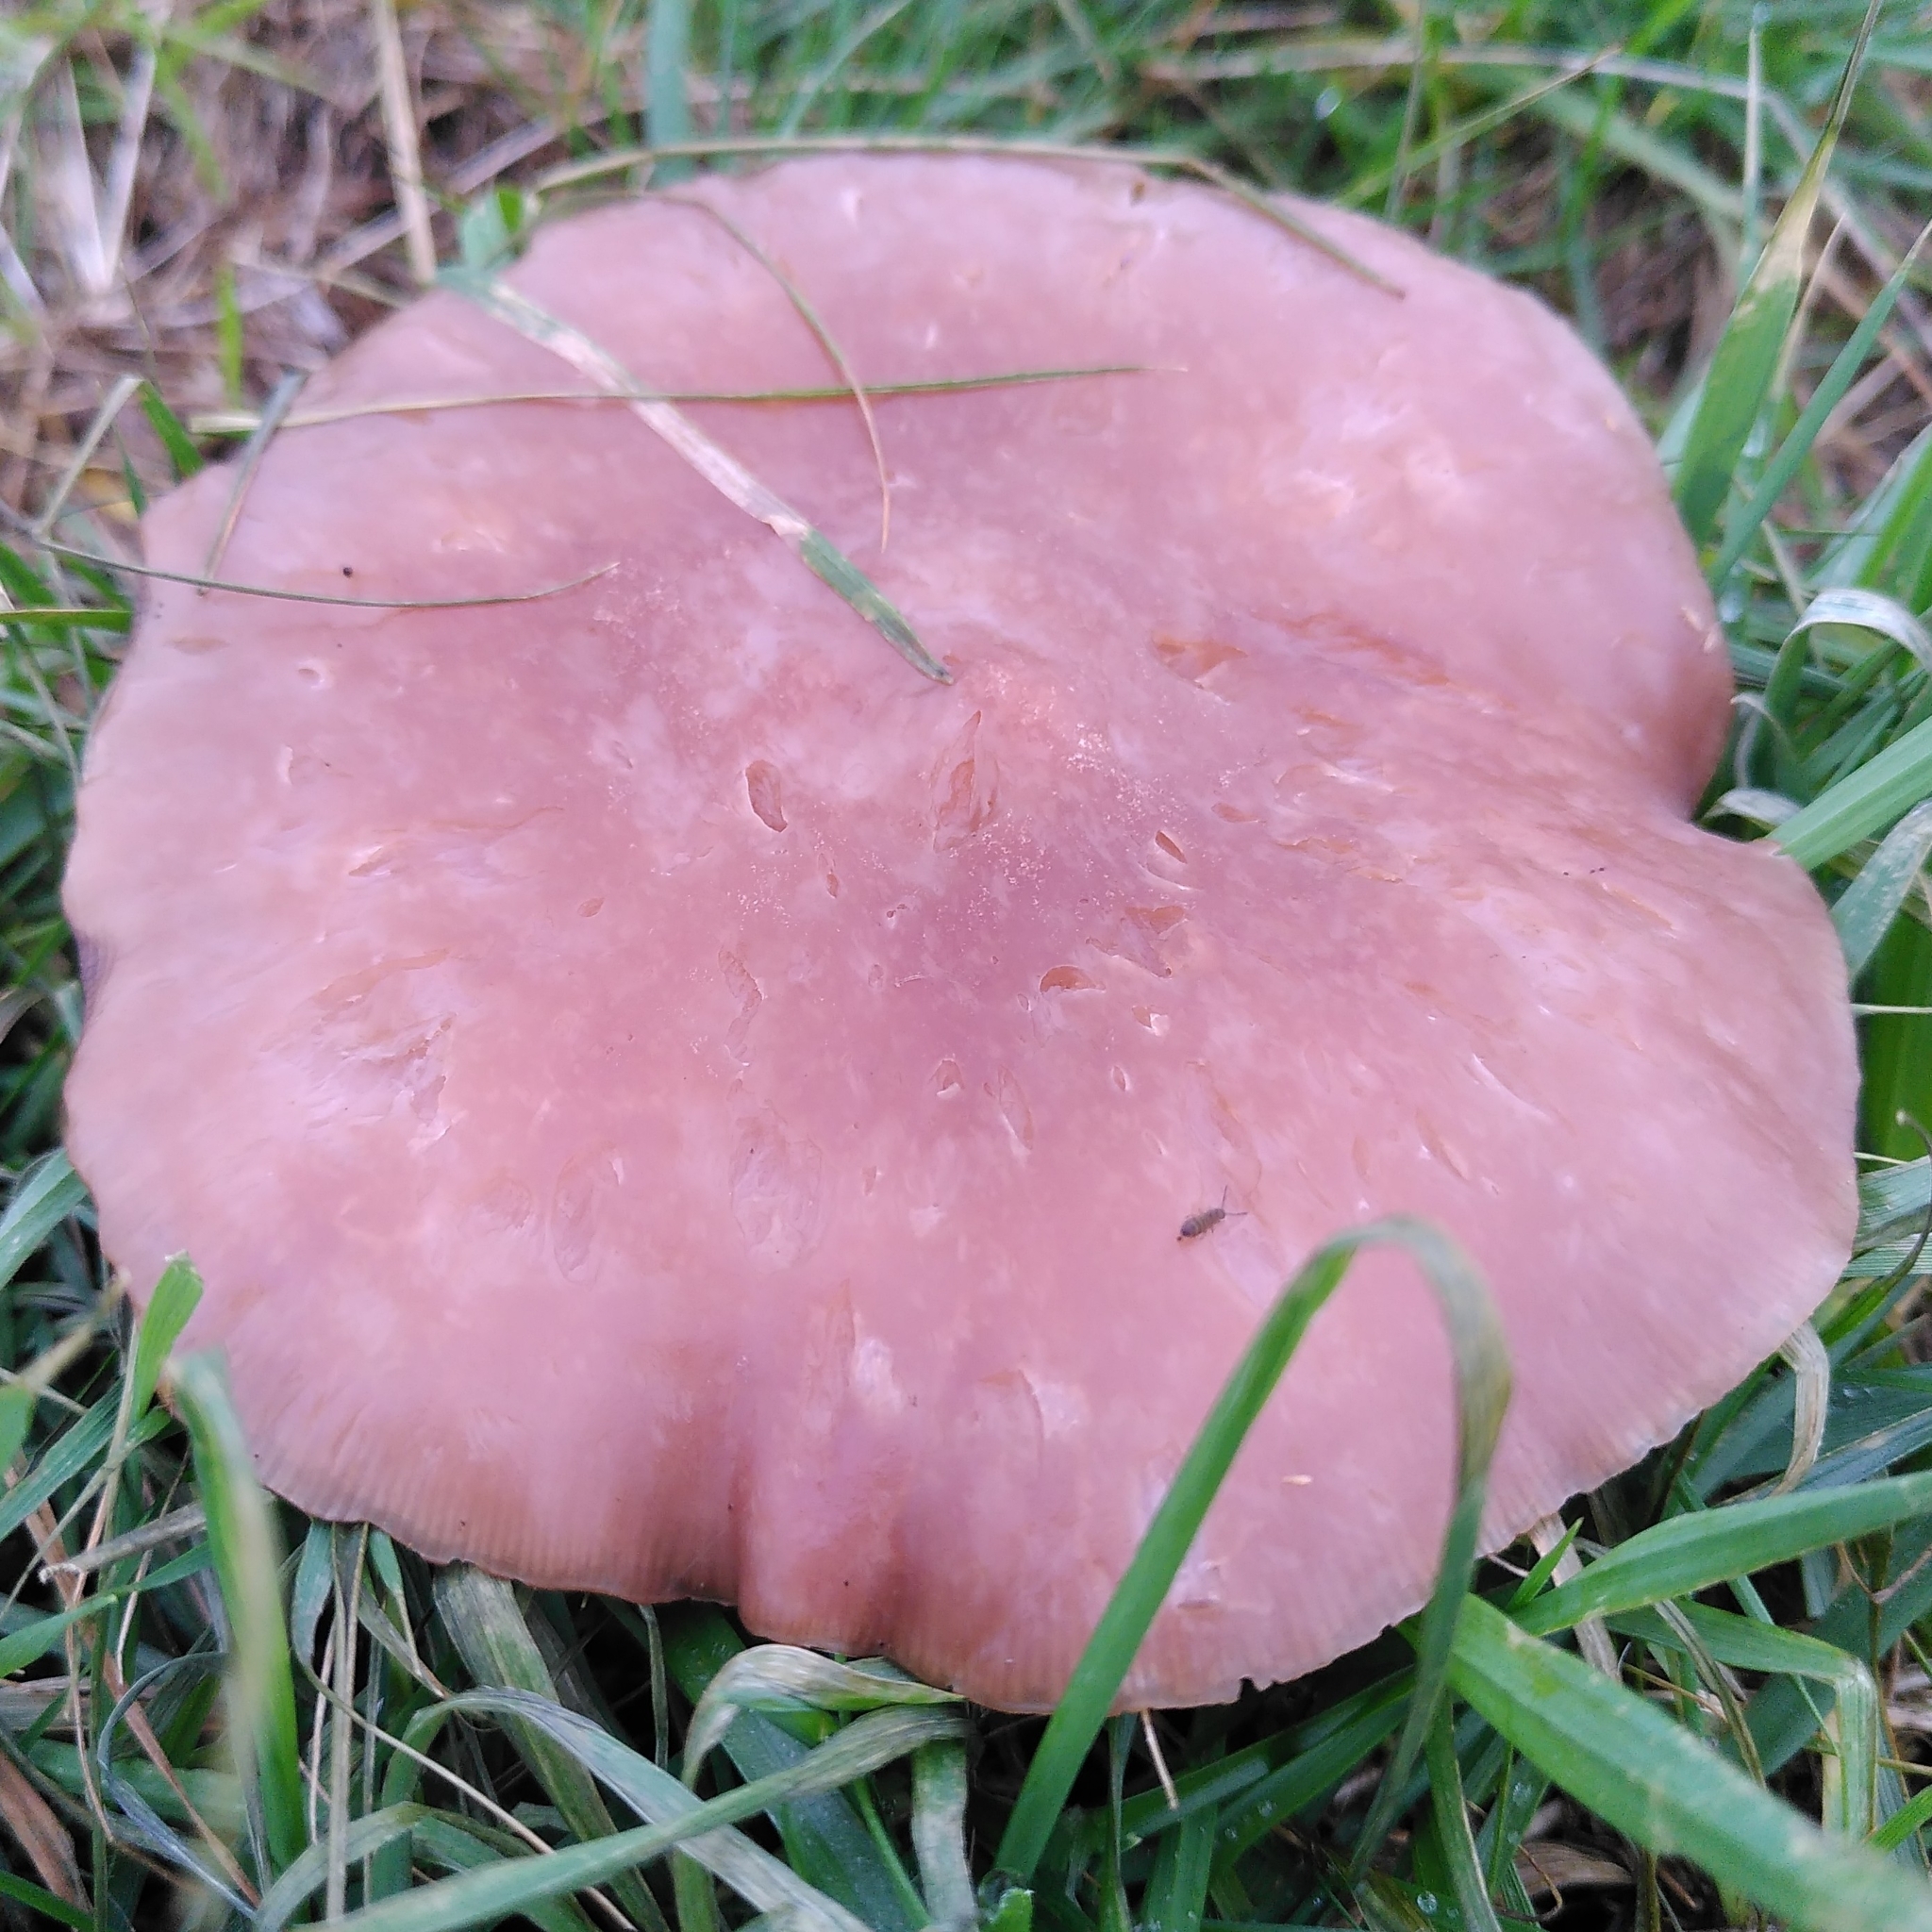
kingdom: Fungi
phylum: Basidiomycota
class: Agaricomycetes
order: Agaricales
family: Omphalotaceae
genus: Collybiopsis
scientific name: Collybiopsis peronata
